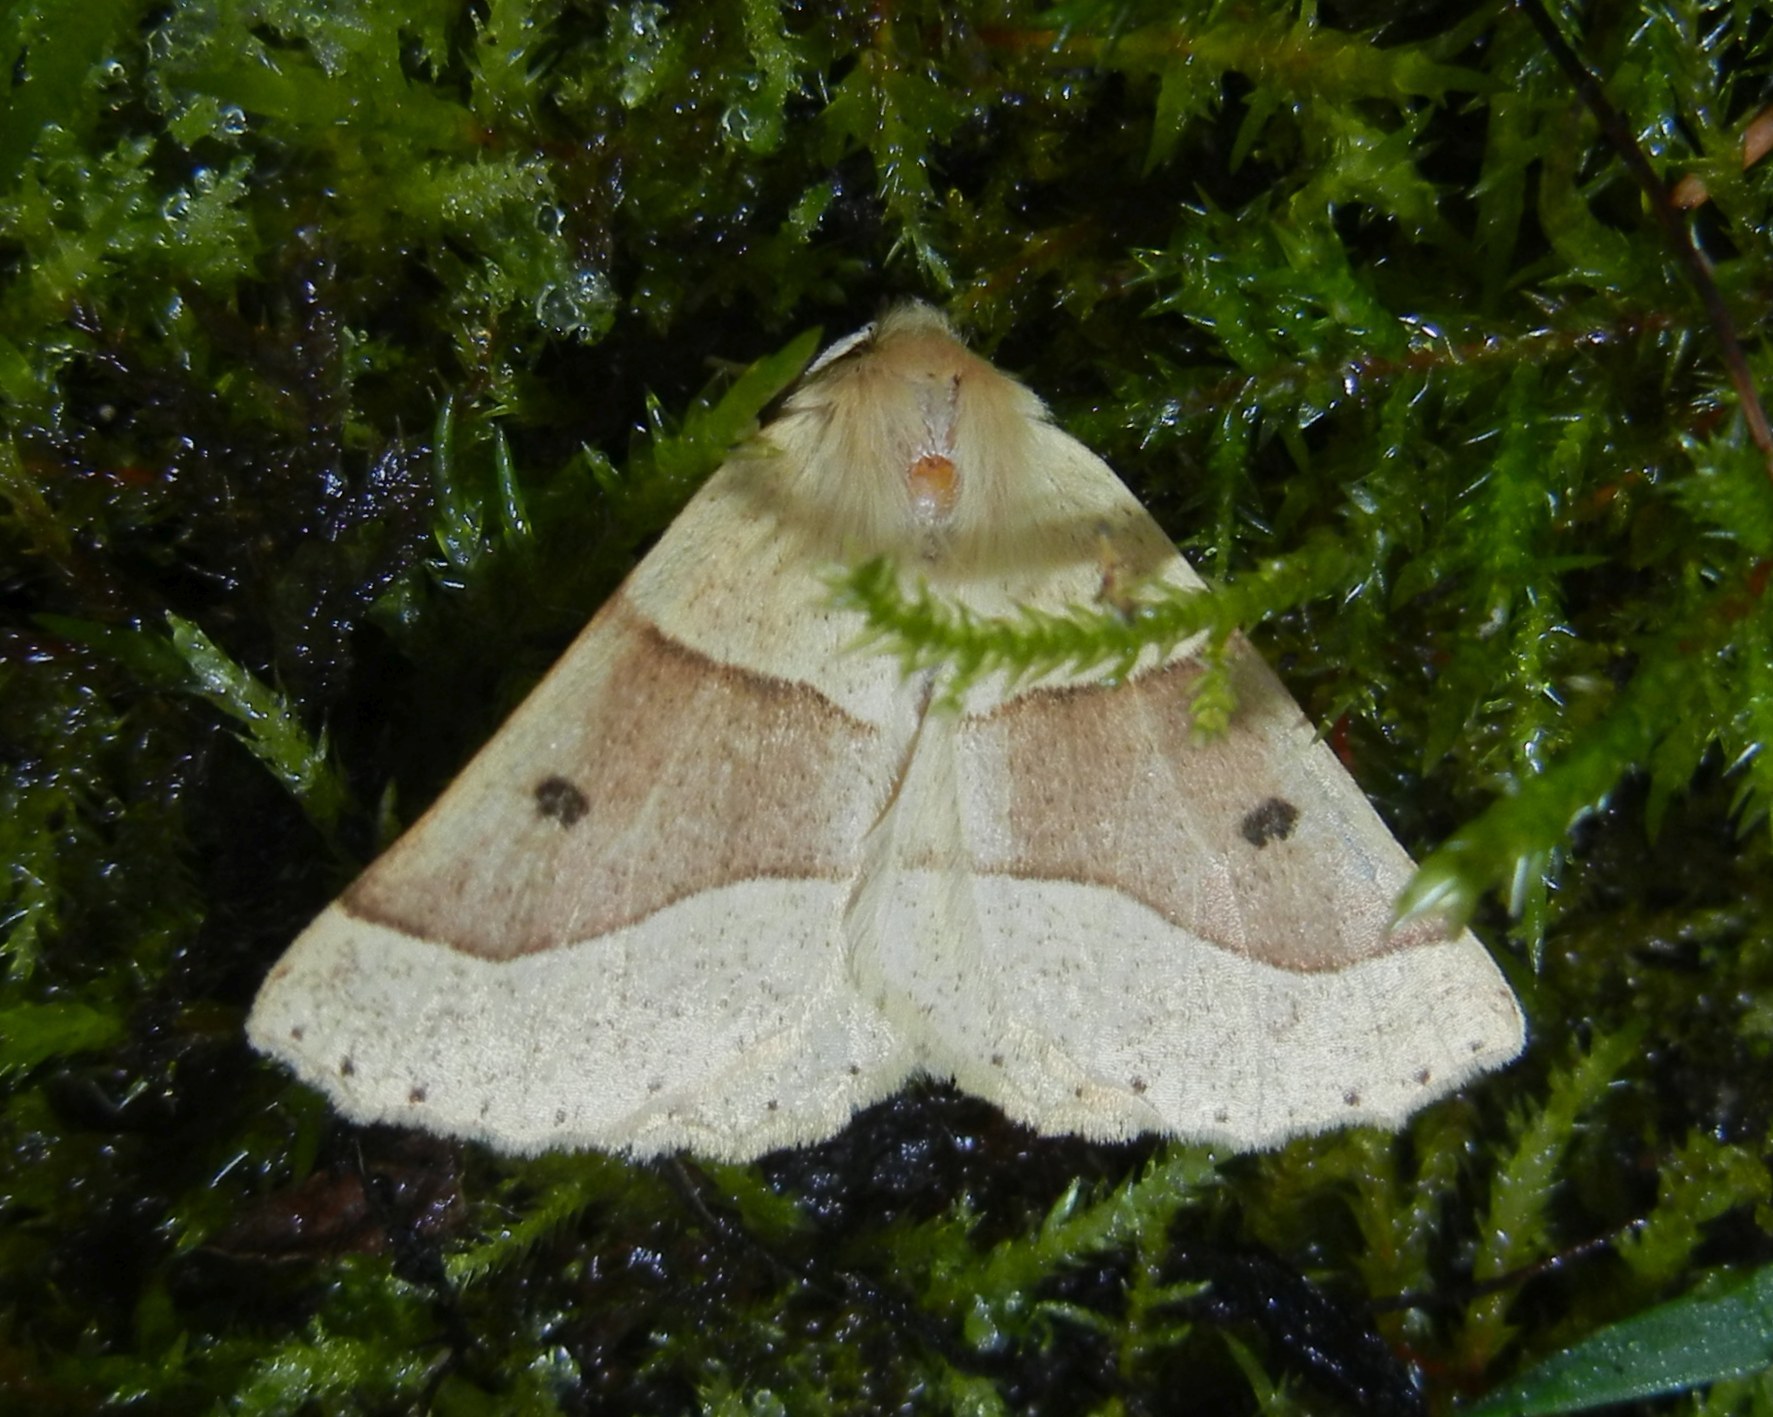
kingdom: Animalia
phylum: Arthropoda
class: Insecta
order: Lepidoptera
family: Geometridae
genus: Crocallis
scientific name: Crocallis elinguaria
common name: Scalloped oak
